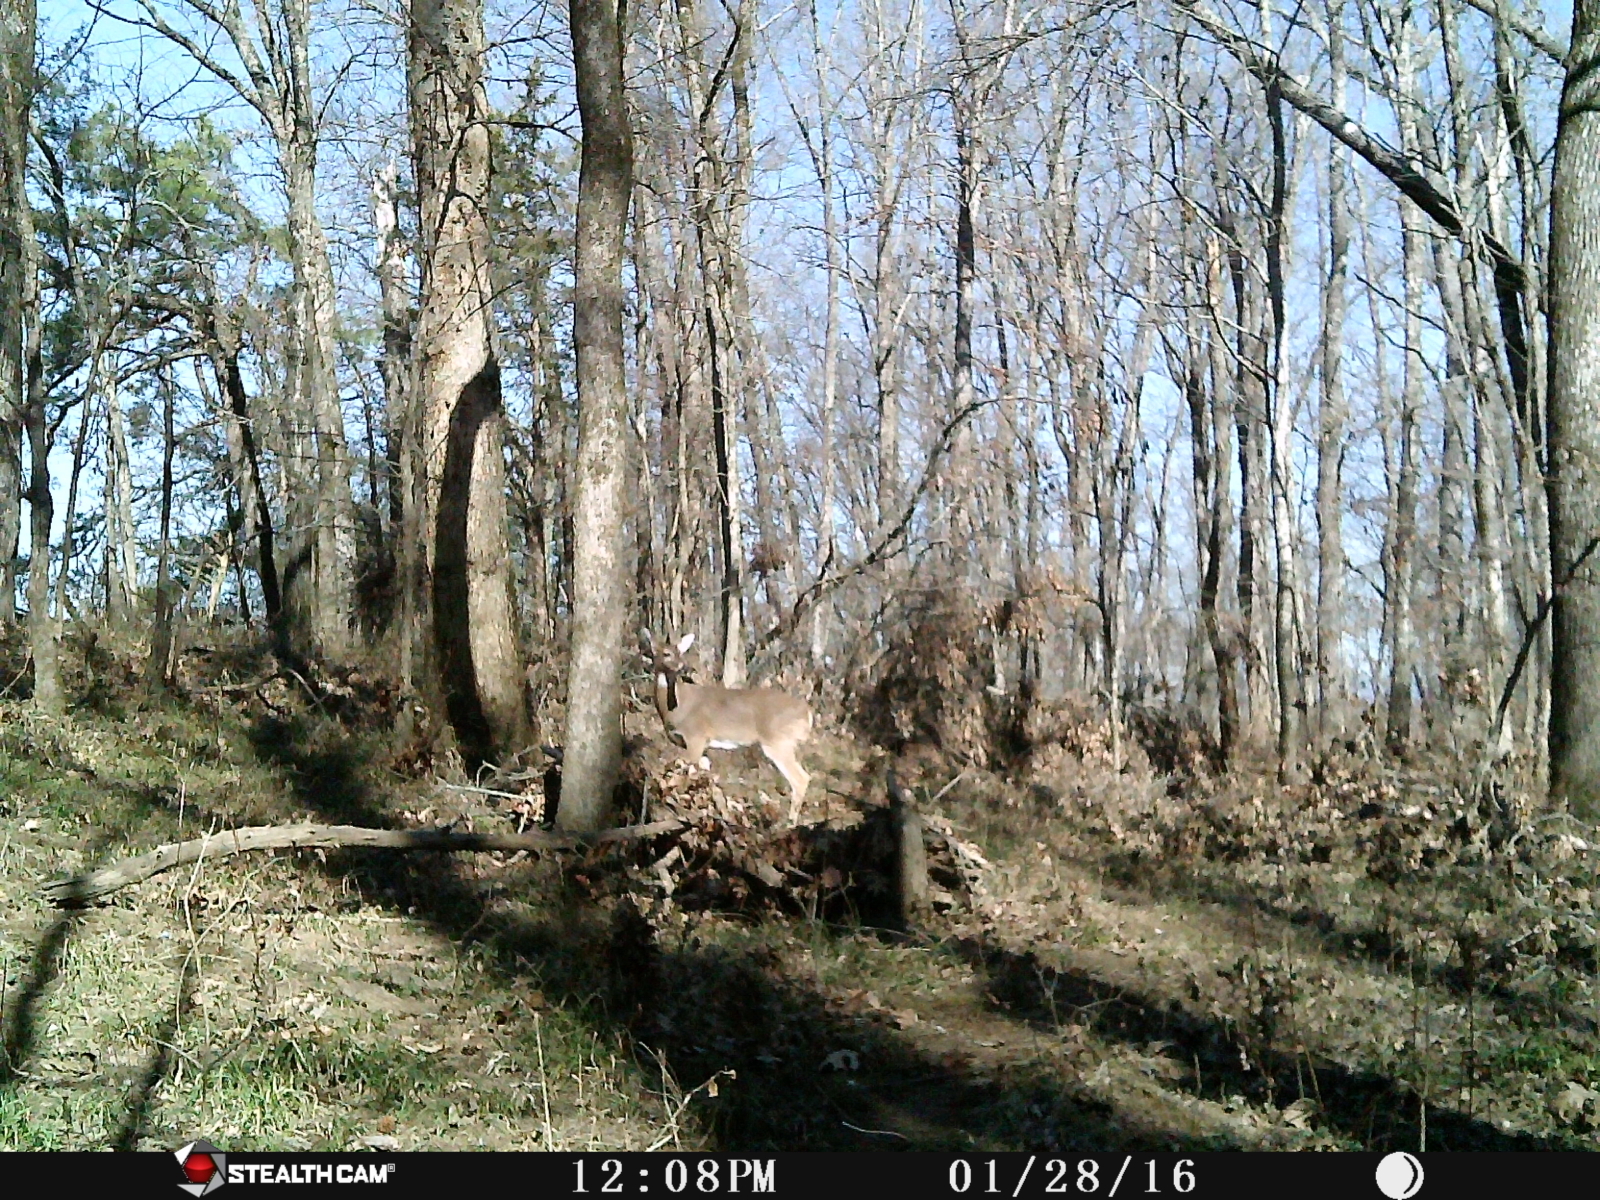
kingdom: Animalia
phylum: Chordata
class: Mammalia
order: Artiodactyla
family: Cervidae
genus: Odocoileus
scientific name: Odocoileus virginianus
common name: White-tailed deer
